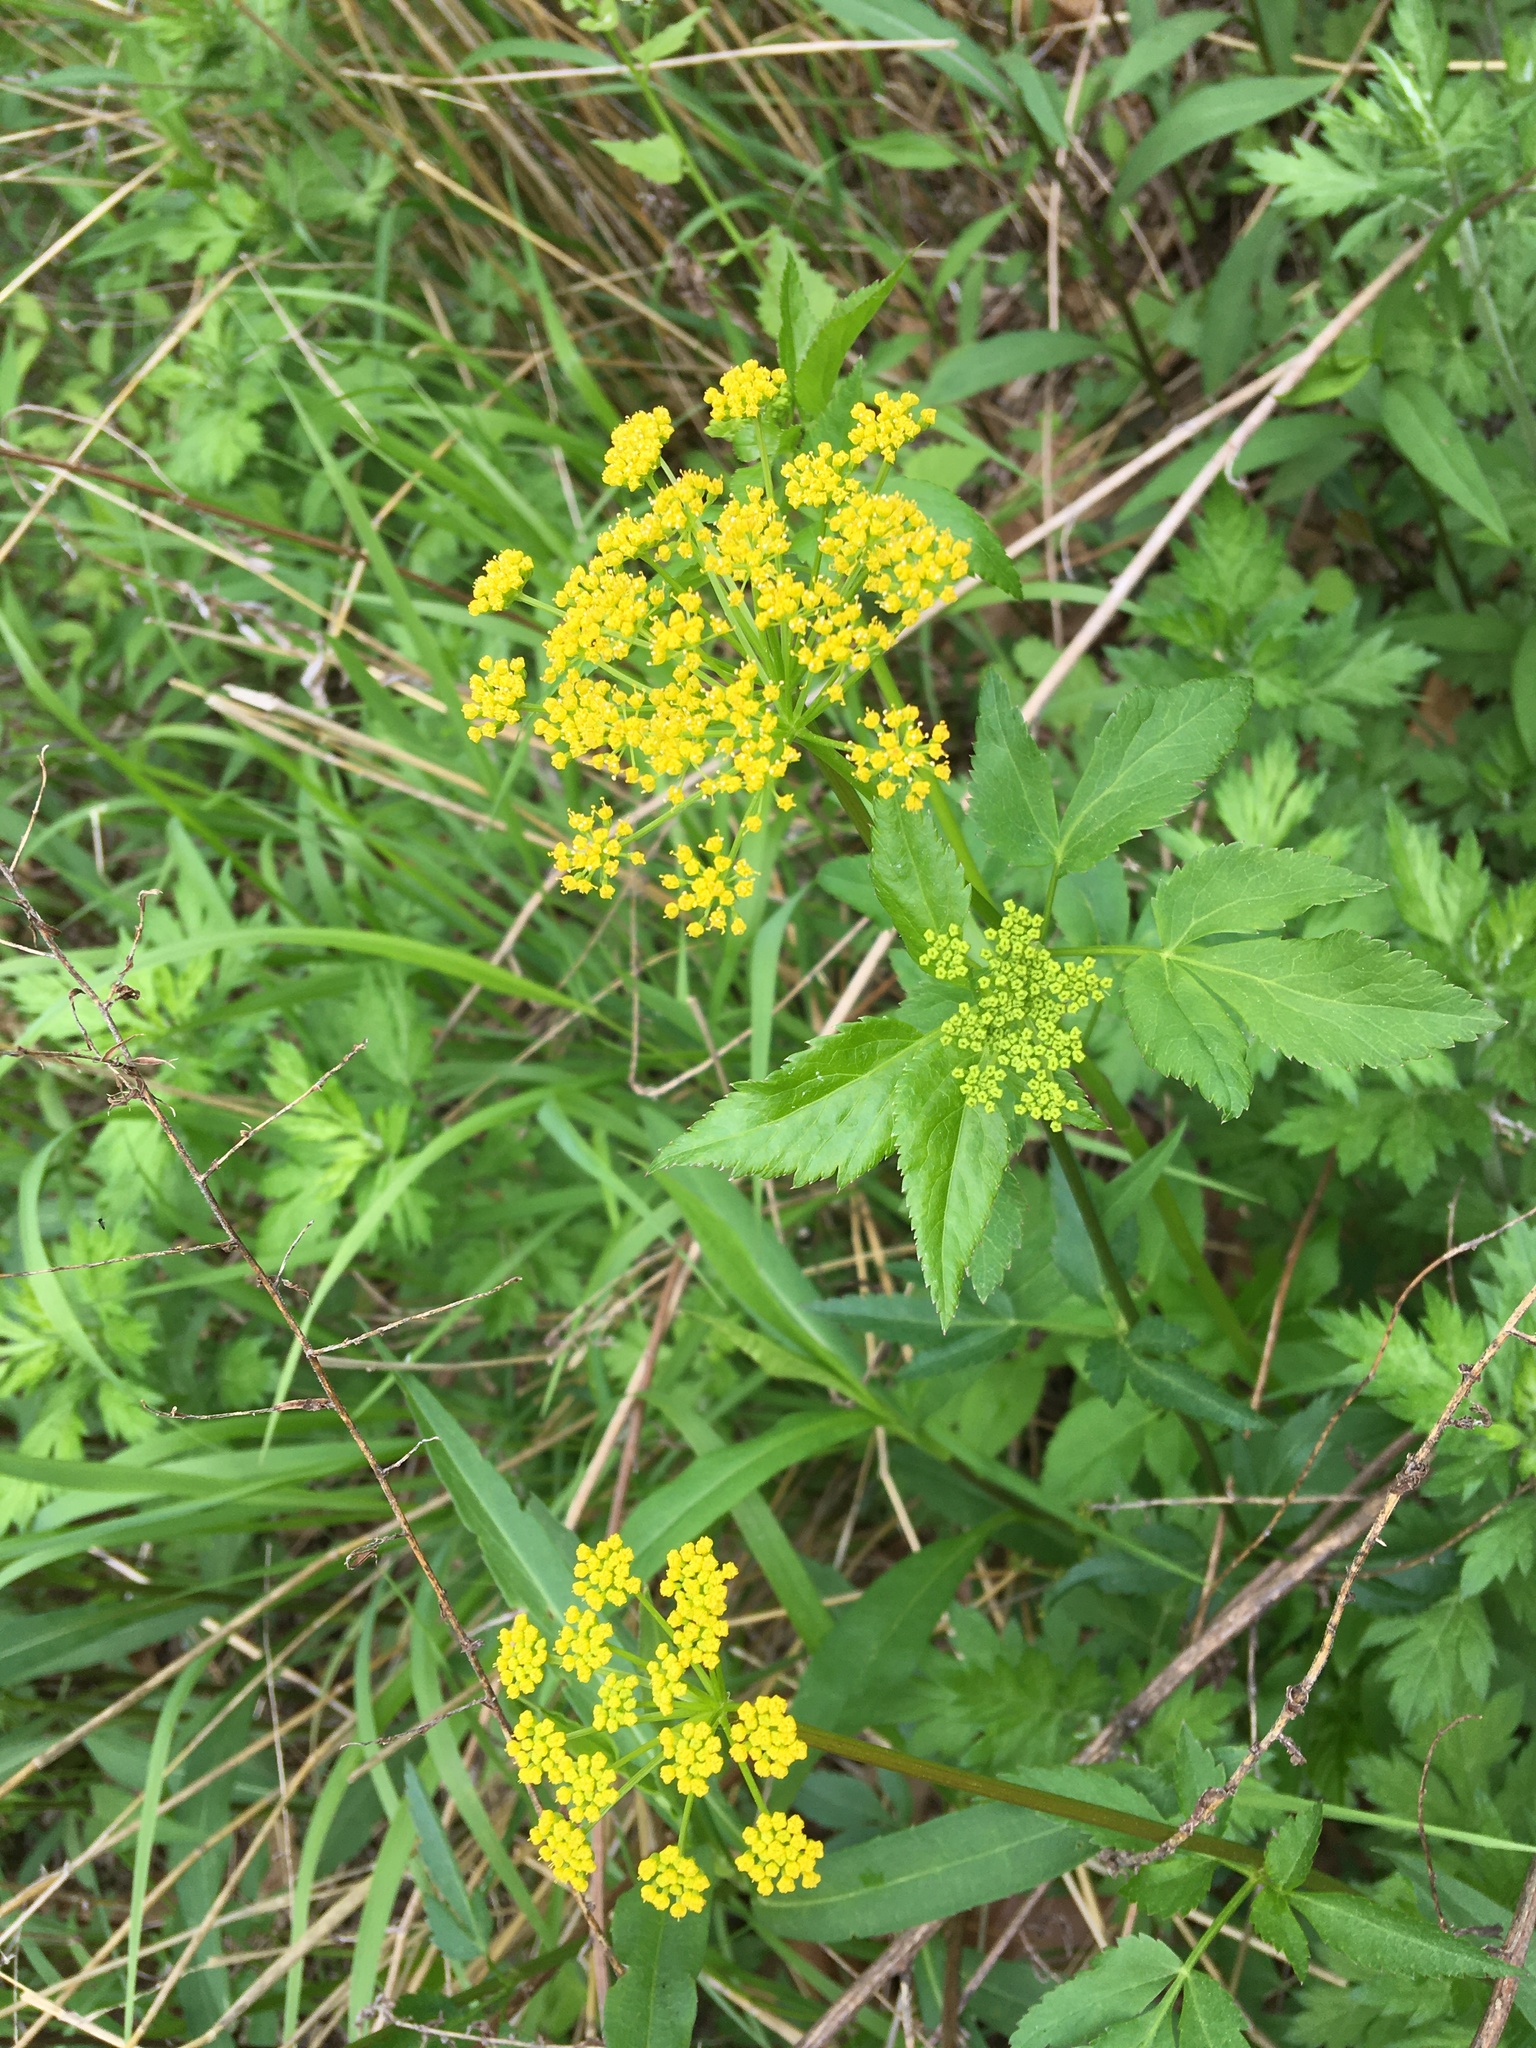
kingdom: Plantae
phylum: Tracheophyta
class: Magnoliopsida
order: Apiales
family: Apiaceae
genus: Zizia
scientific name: Zizia aurea
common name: Golden alexanders
